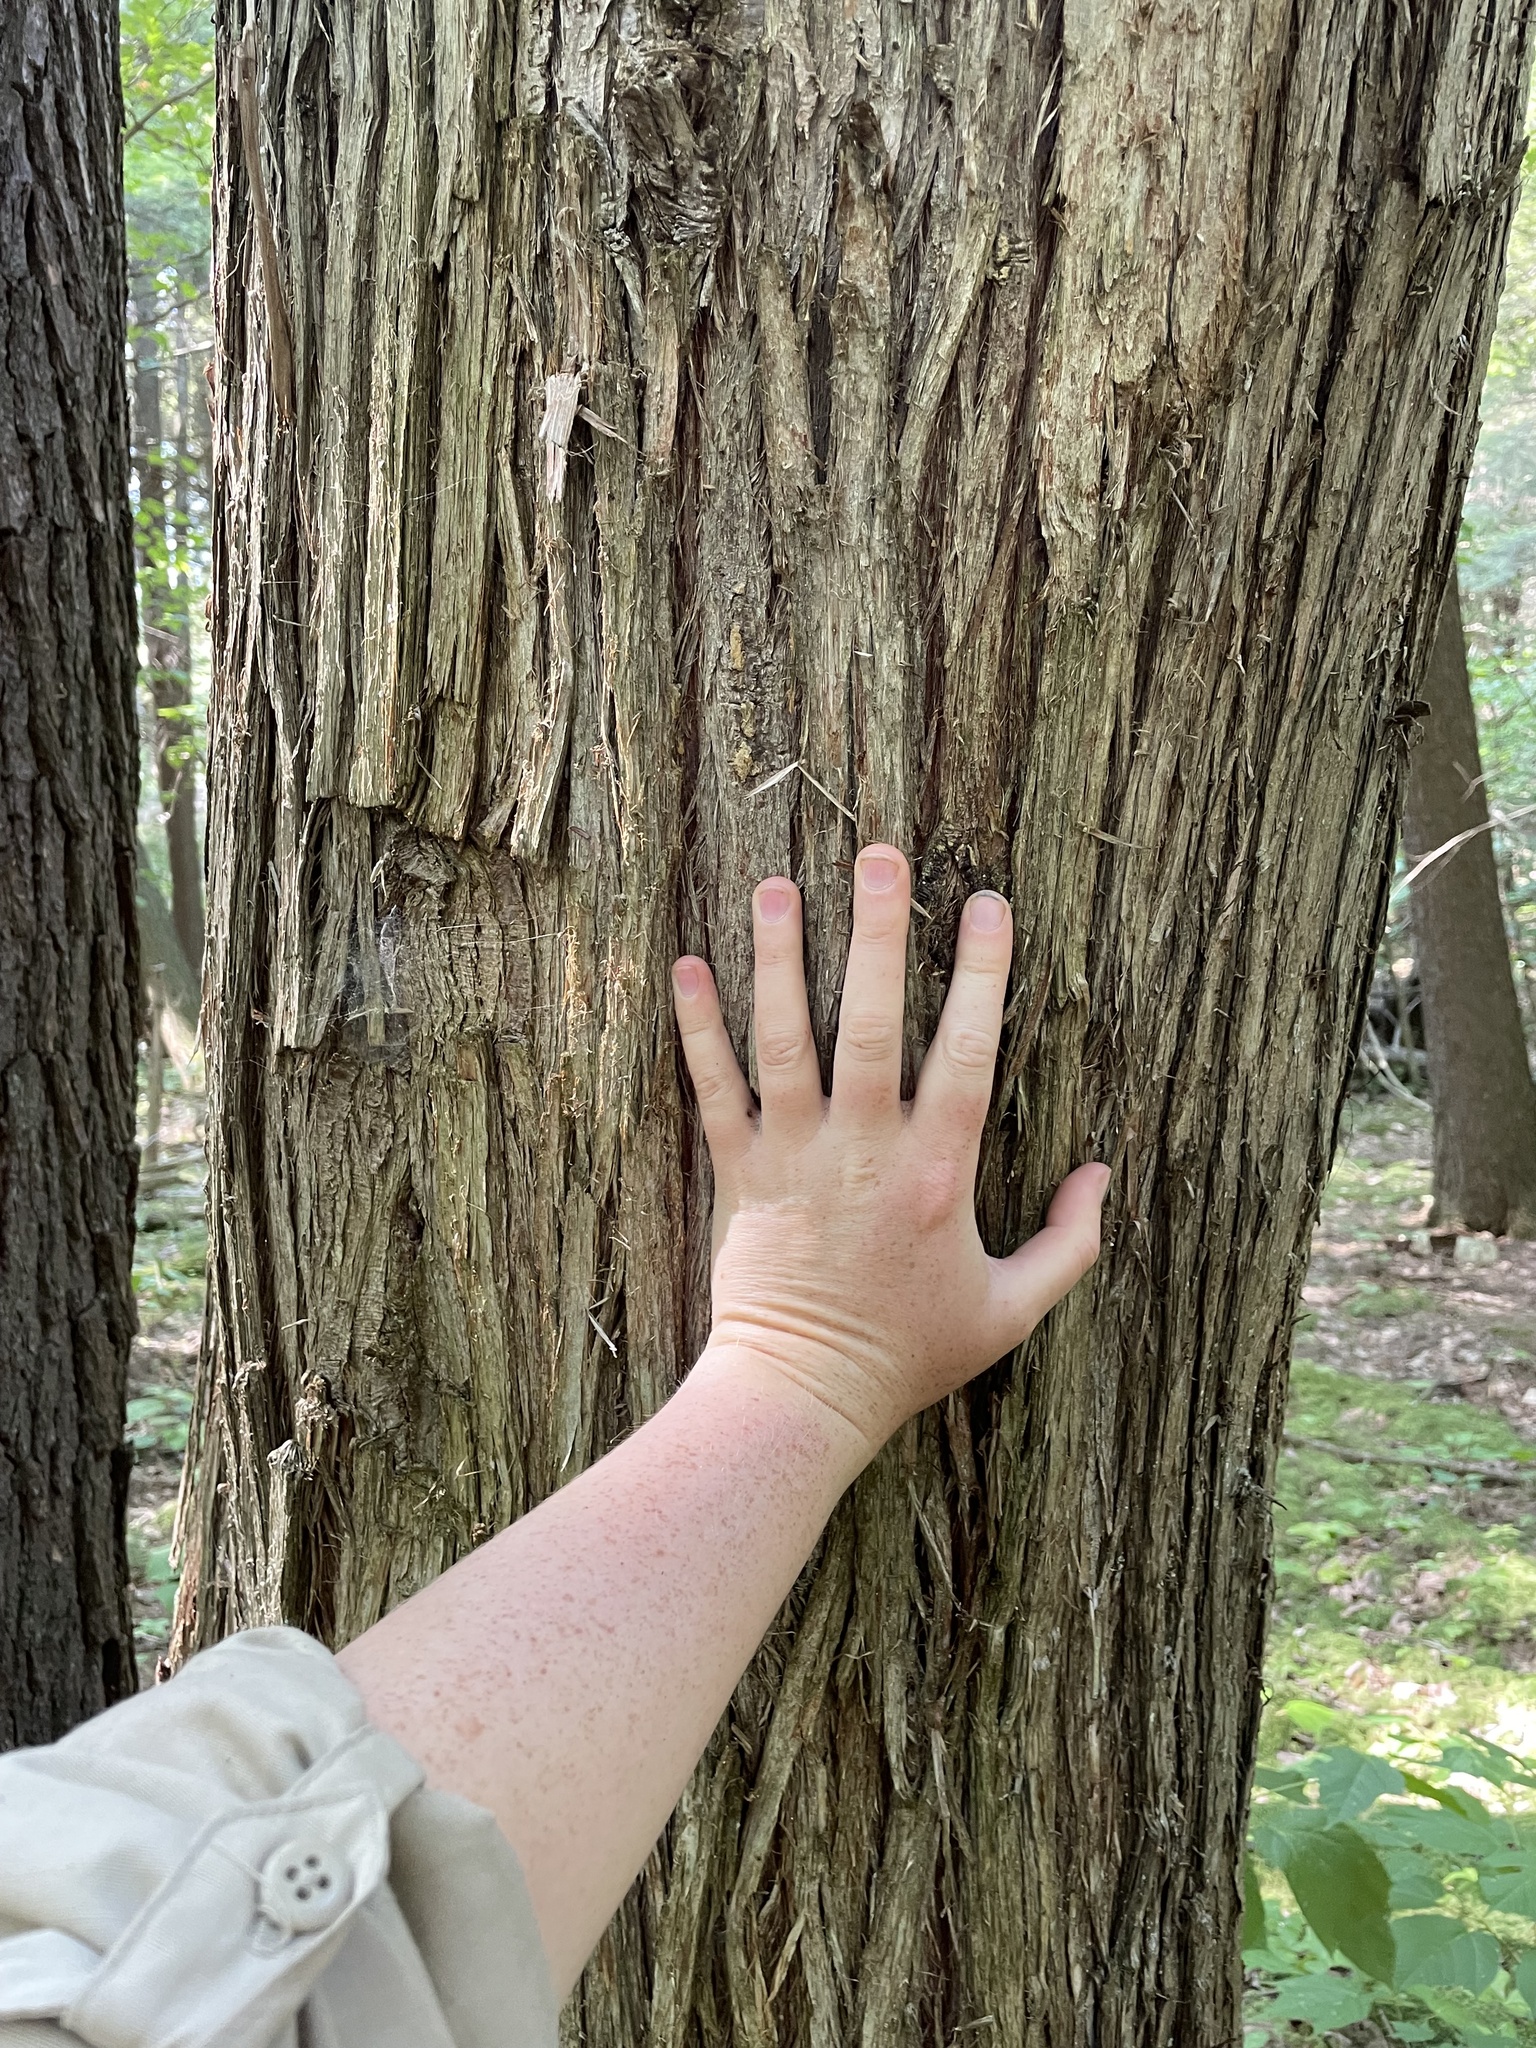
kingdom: Plantae
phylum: Tracheophyta
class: Pinopsida
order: Pinales
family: Cupressaceae
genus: Thuja
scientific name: Thuja occidentalis
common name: Northern white-cedar
